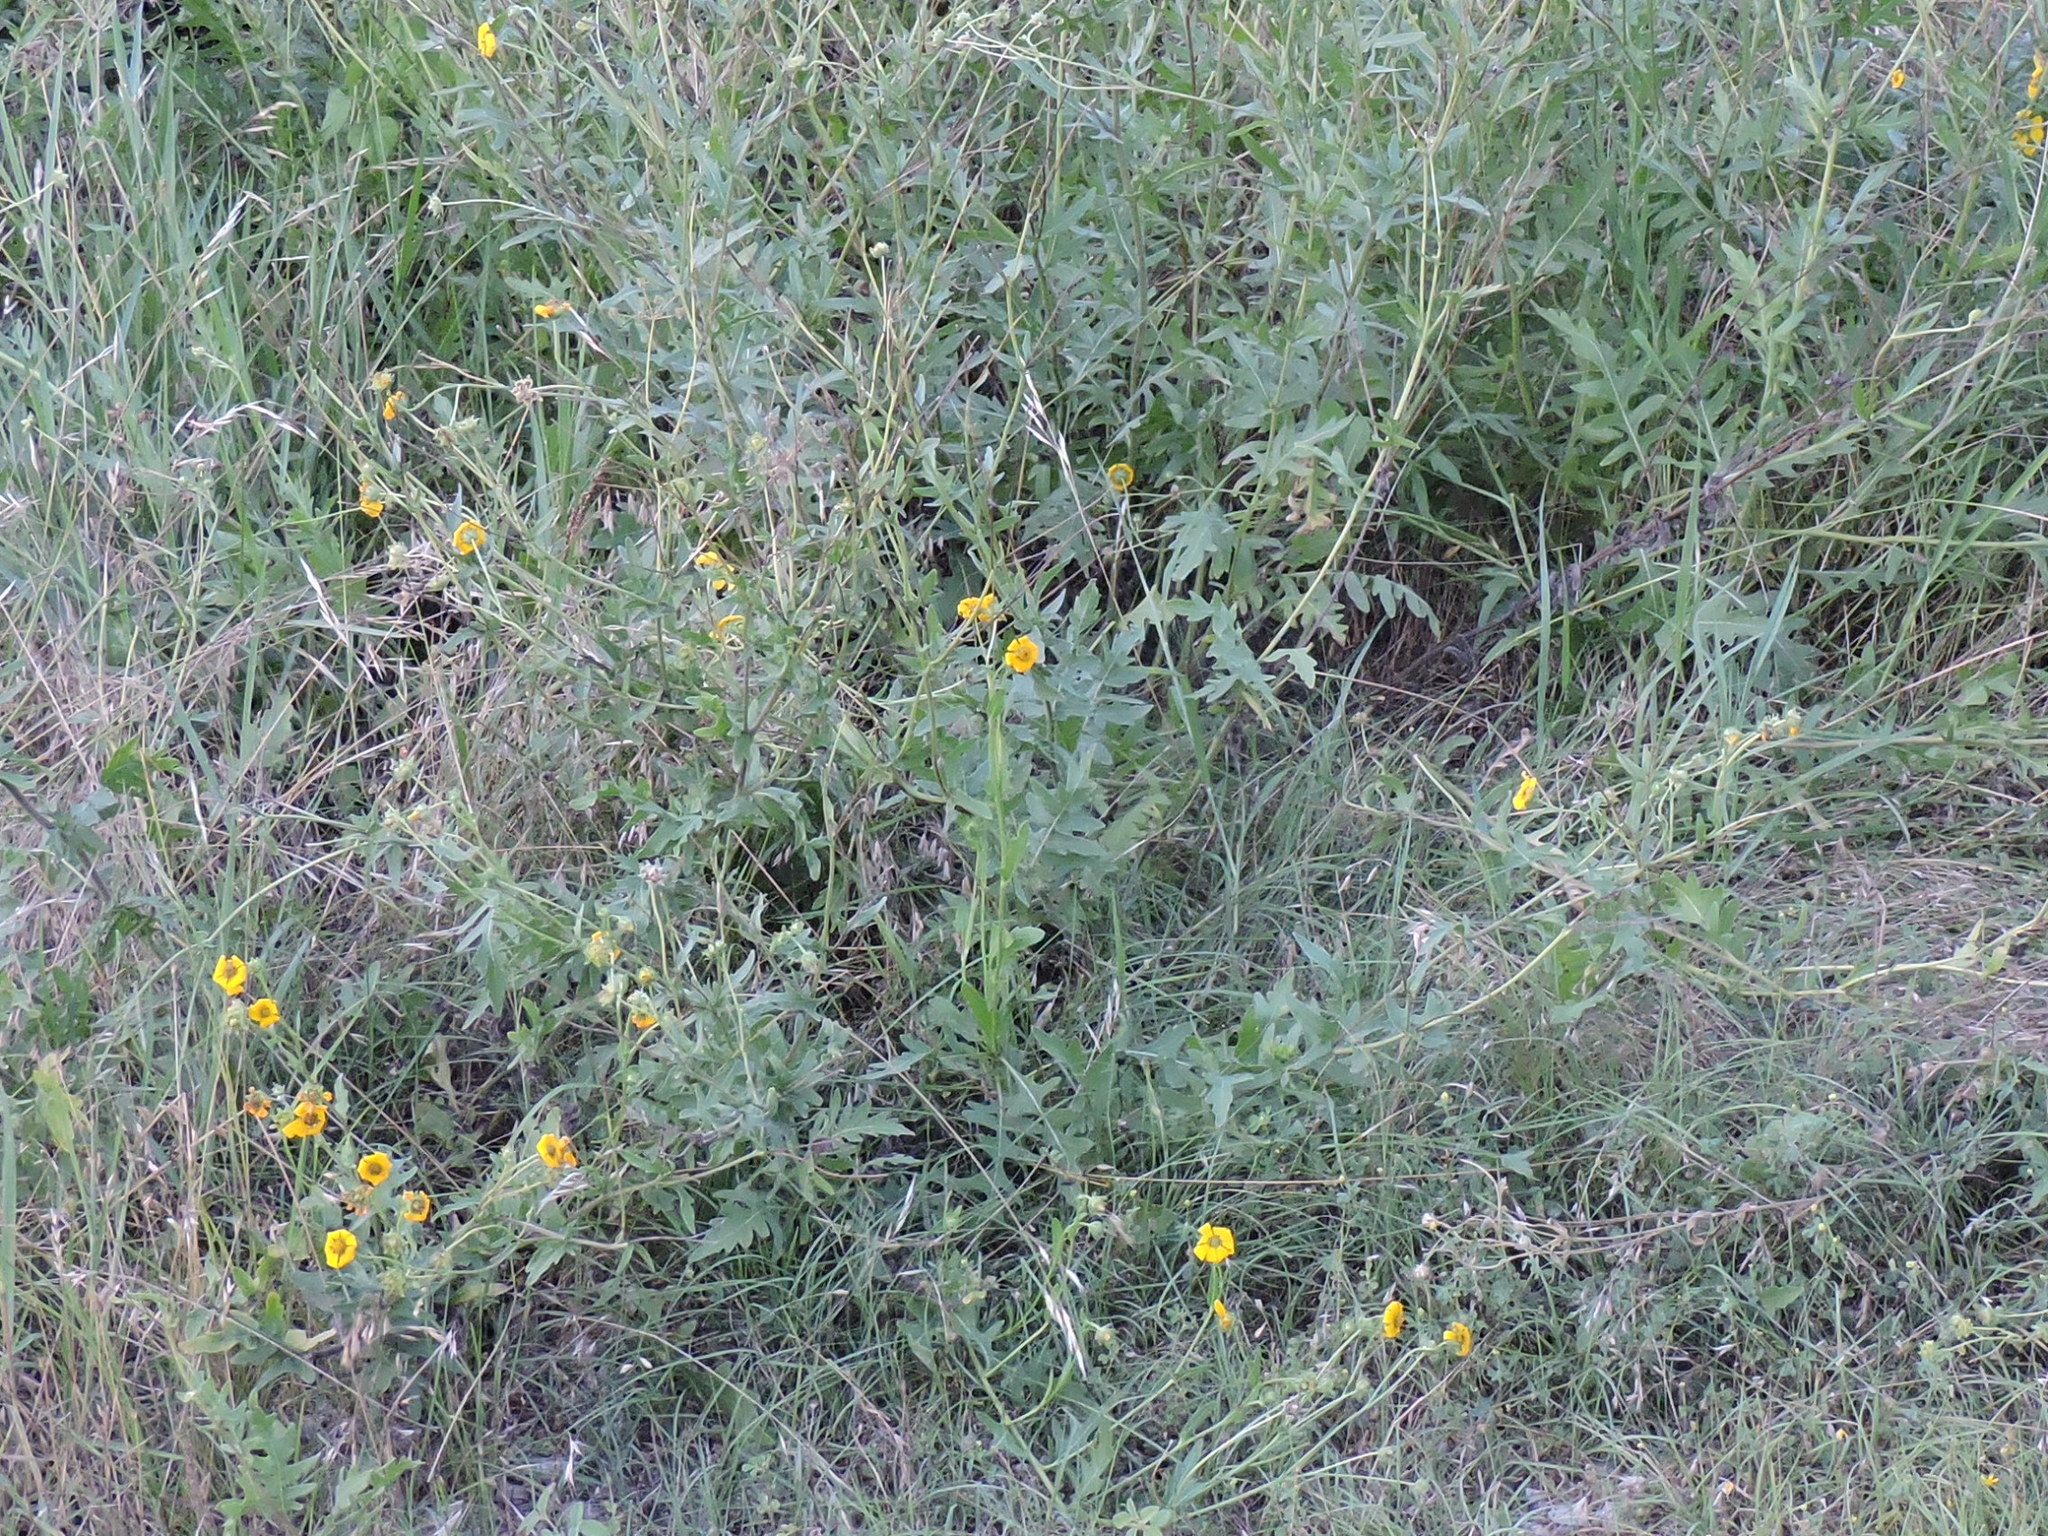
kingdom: Plantae
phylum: Tracheophyta
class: Magnoliopsida
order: Asterales
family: Asteraceae
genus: Engelmannia
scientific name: Engelmannia peristenia
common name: Engelmann's daisy
